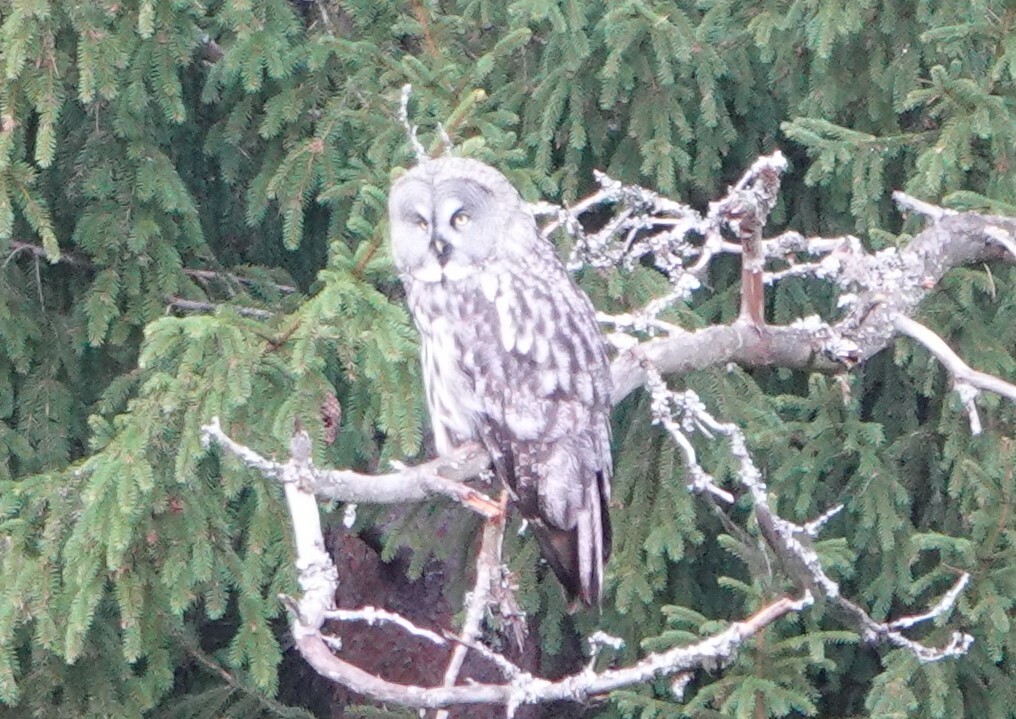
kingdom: Animalia
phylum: Chordata
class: Aves
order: Strigiformes
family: Strigidae
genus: Strix
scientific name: Strix nebulosa
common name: Great grey owl
